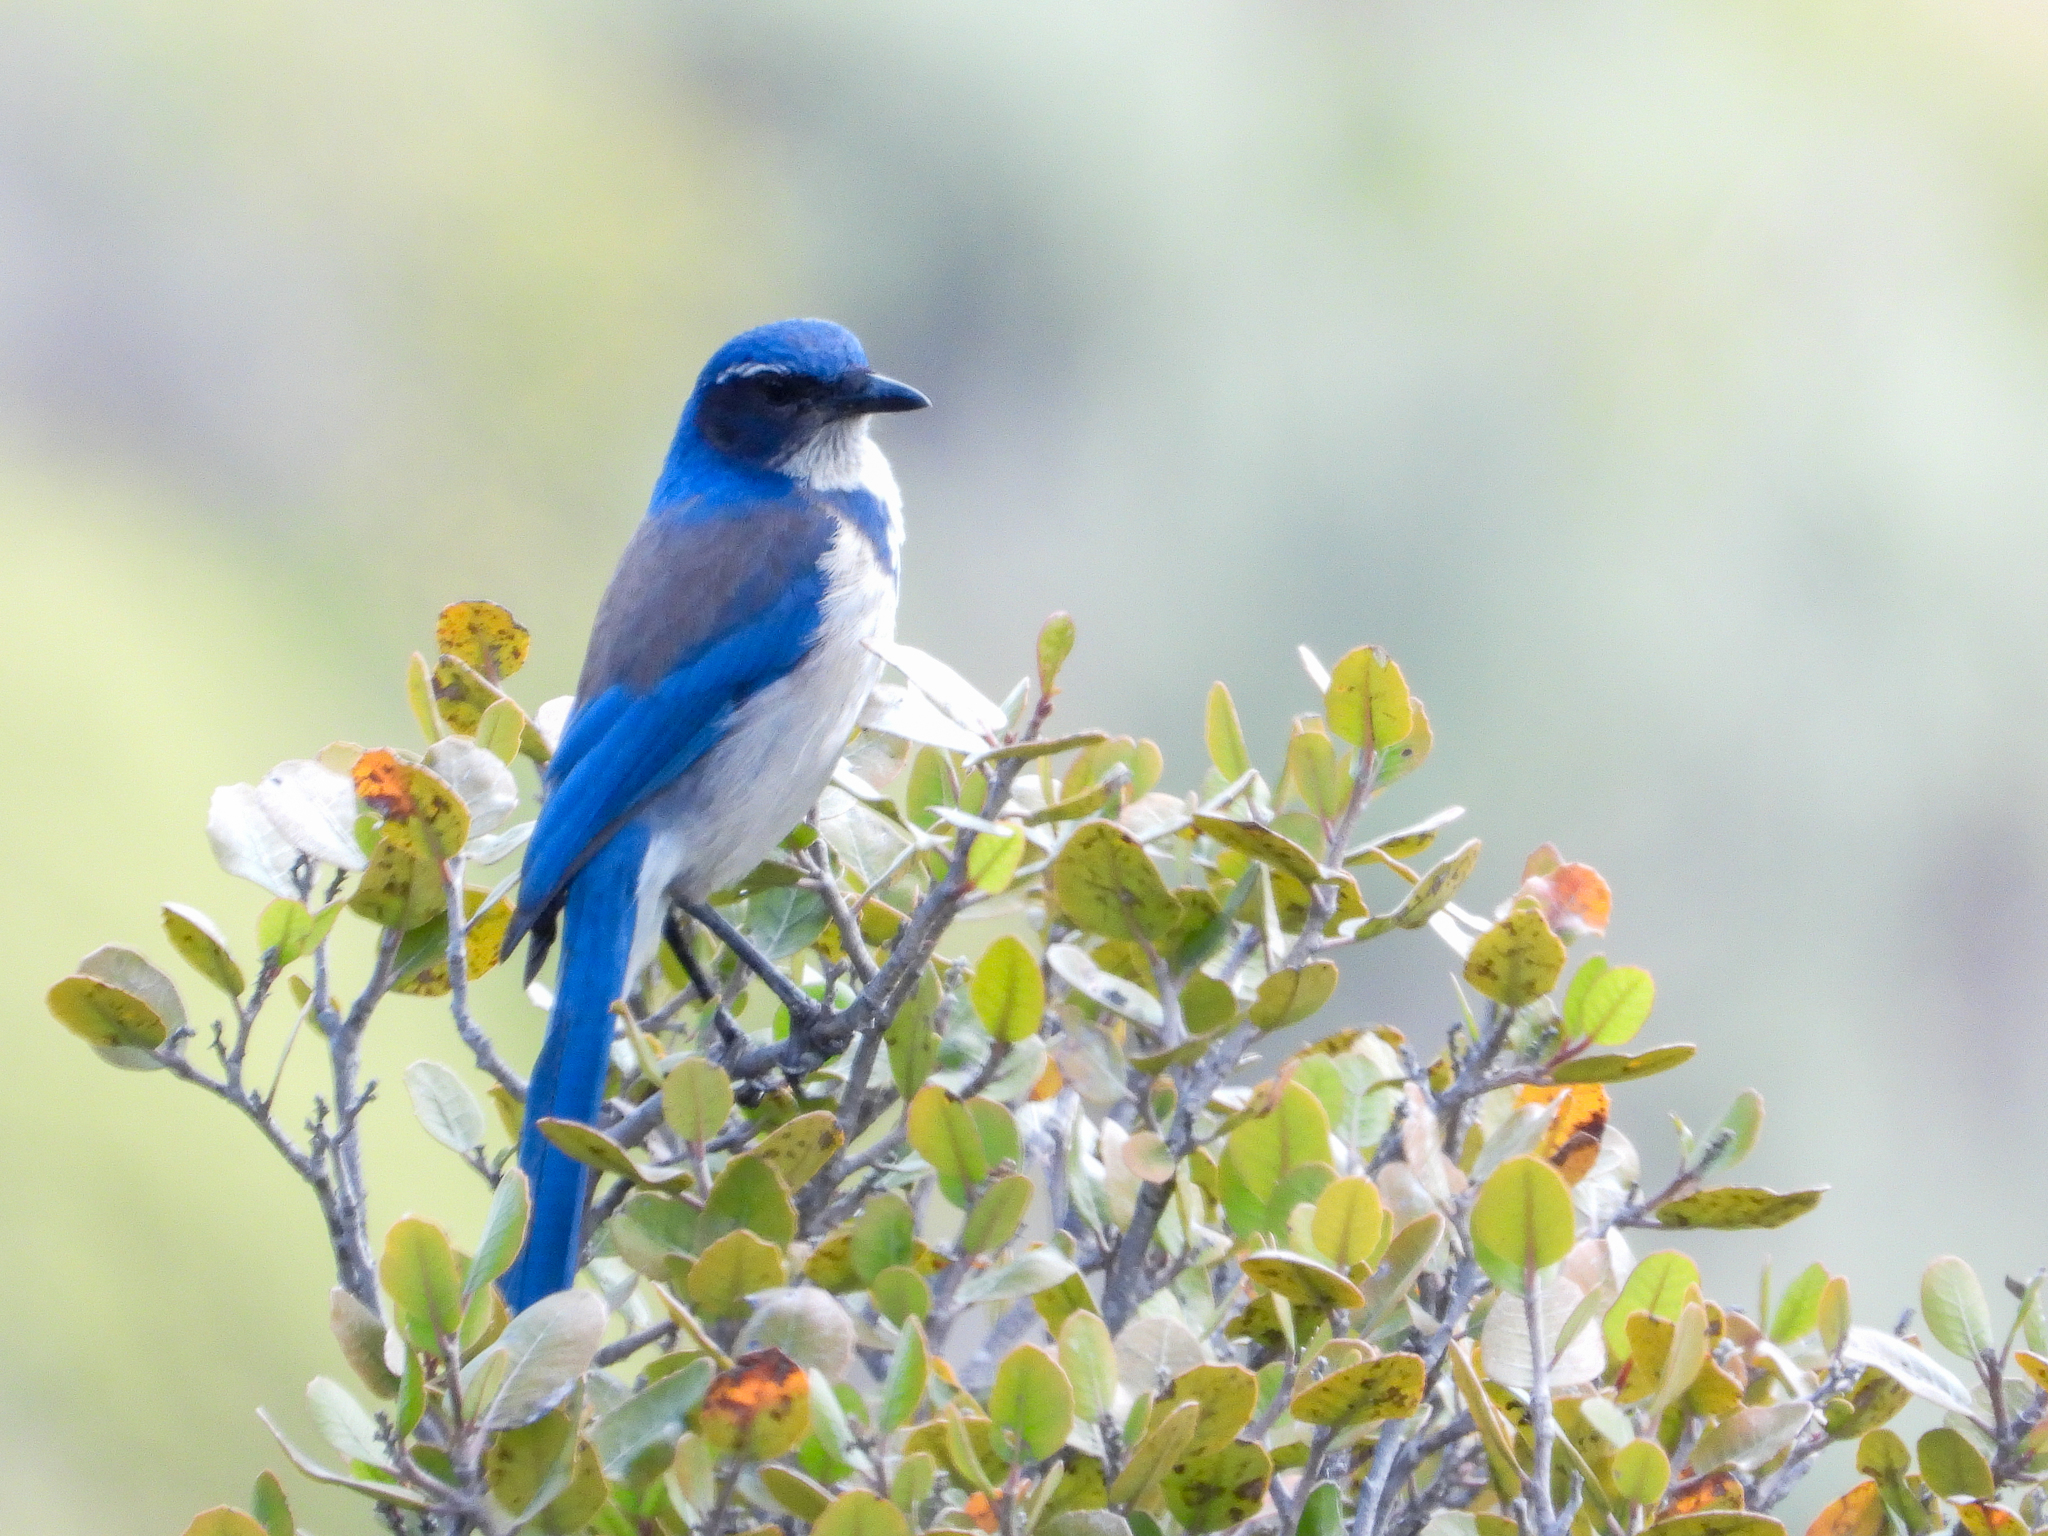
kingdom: Animalia
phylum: Chordata
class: Aves
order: Passeriformes
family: Corvidae
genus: Aphelocoma
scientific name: Aphelocoma californica
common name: California scrub-jay
